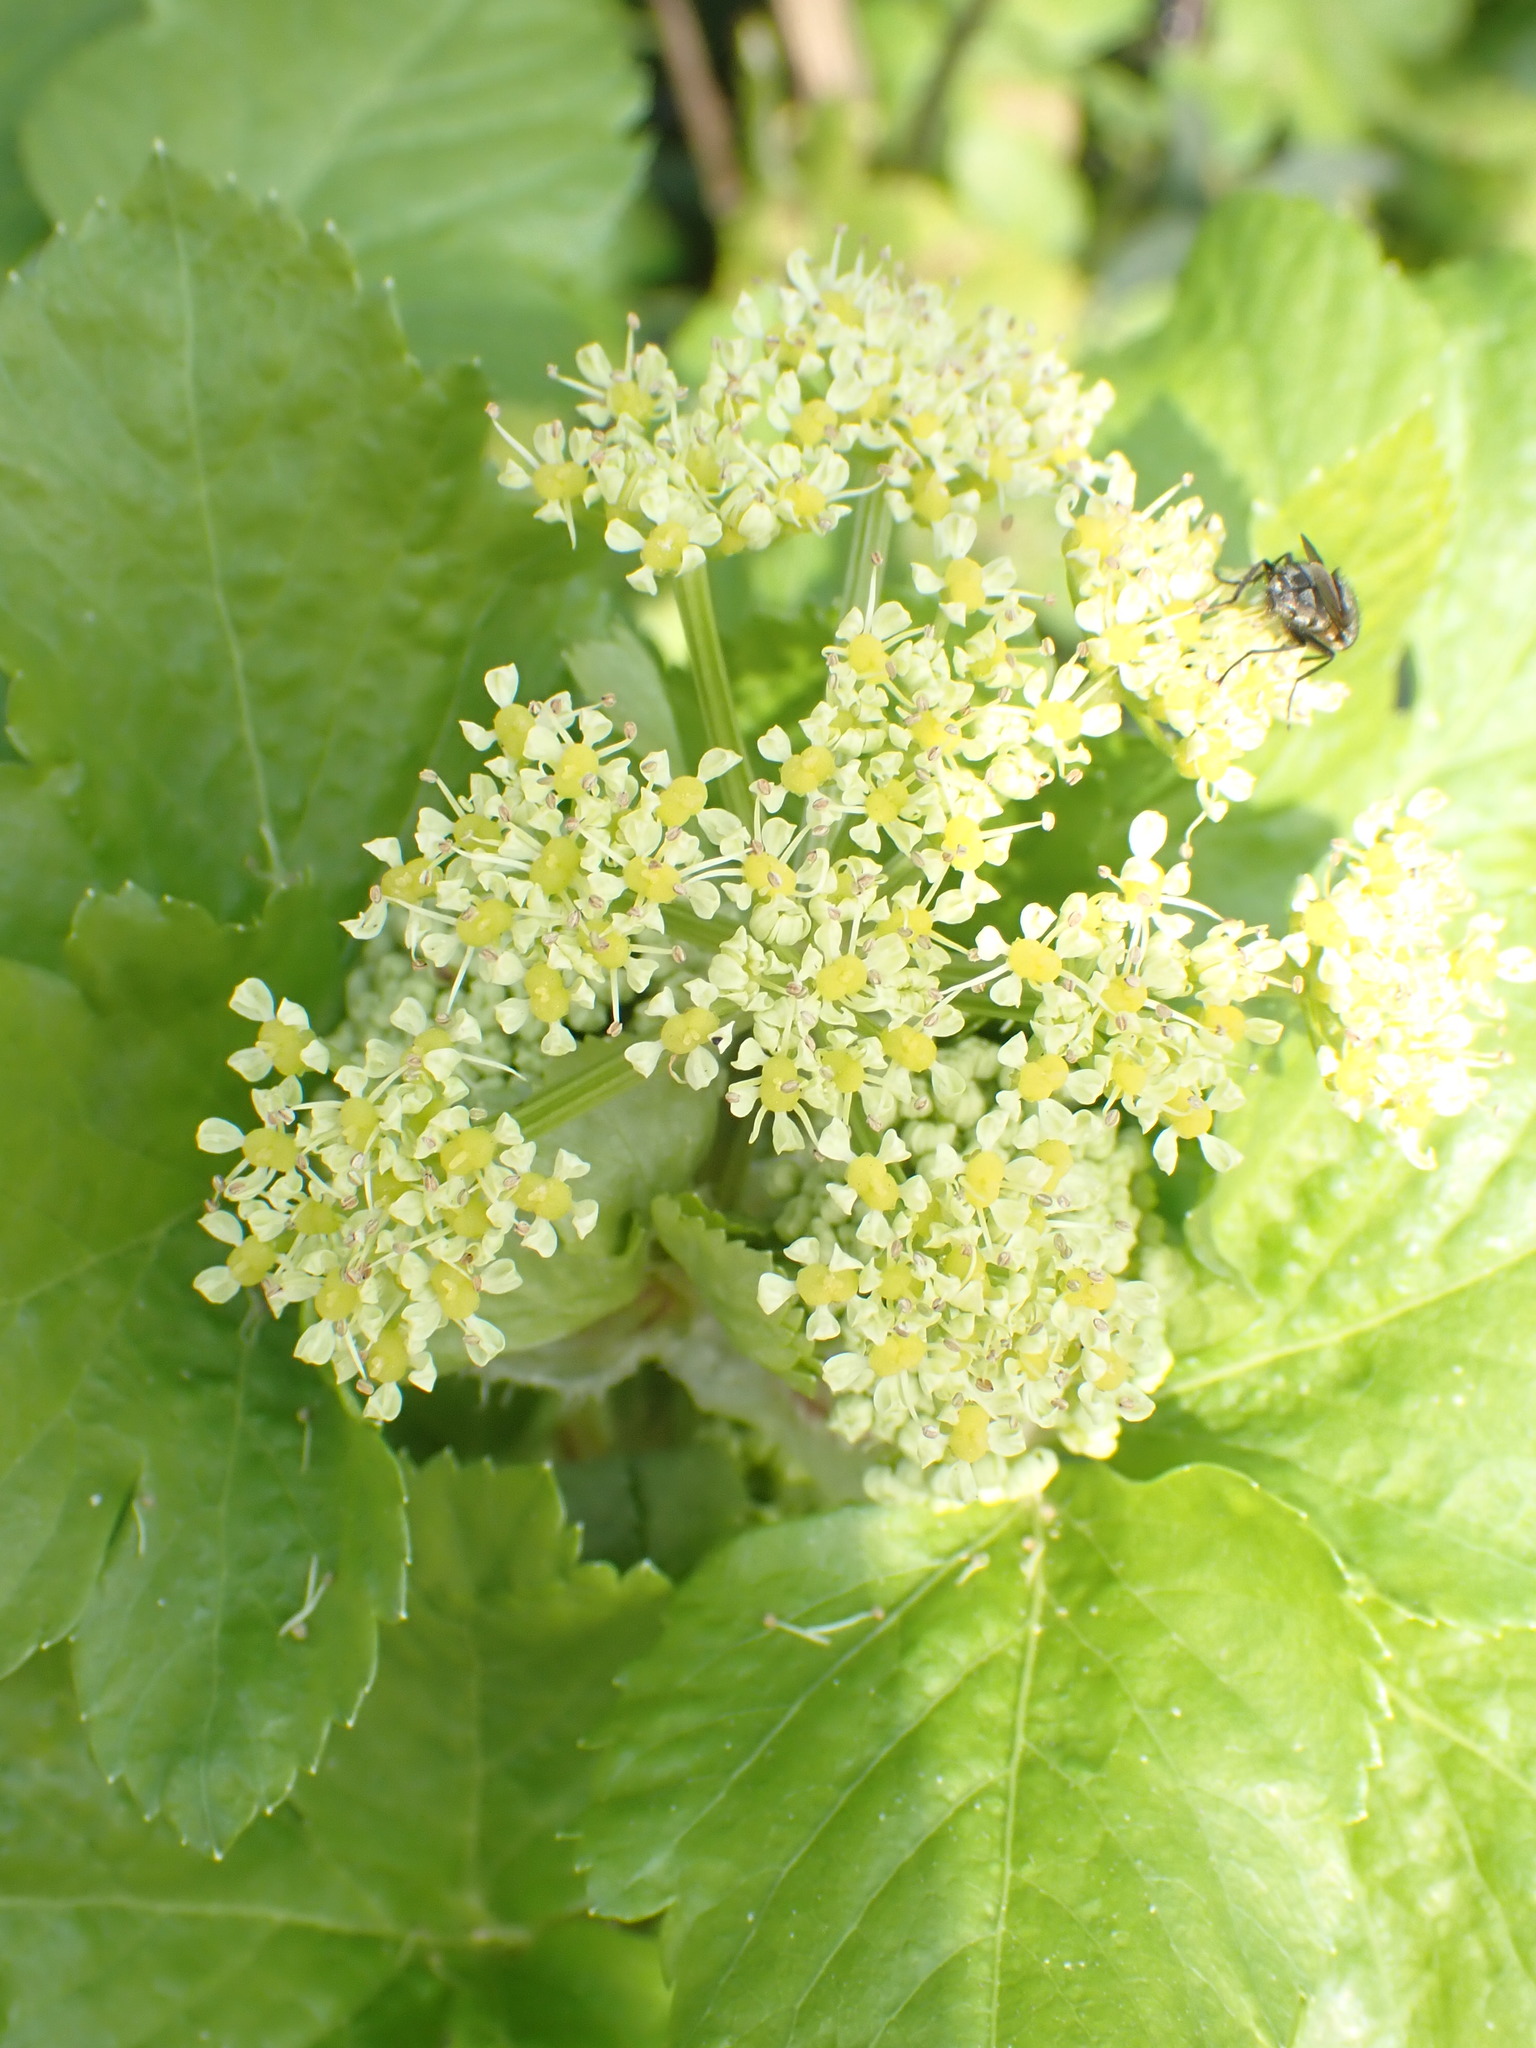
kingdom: Plantae
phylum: Tracheophyta
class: Magnoliopsida
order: Apiales
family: Apiaceae
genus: Smyrnium
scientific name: Smyrnium olusatrum
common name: Alexanders
